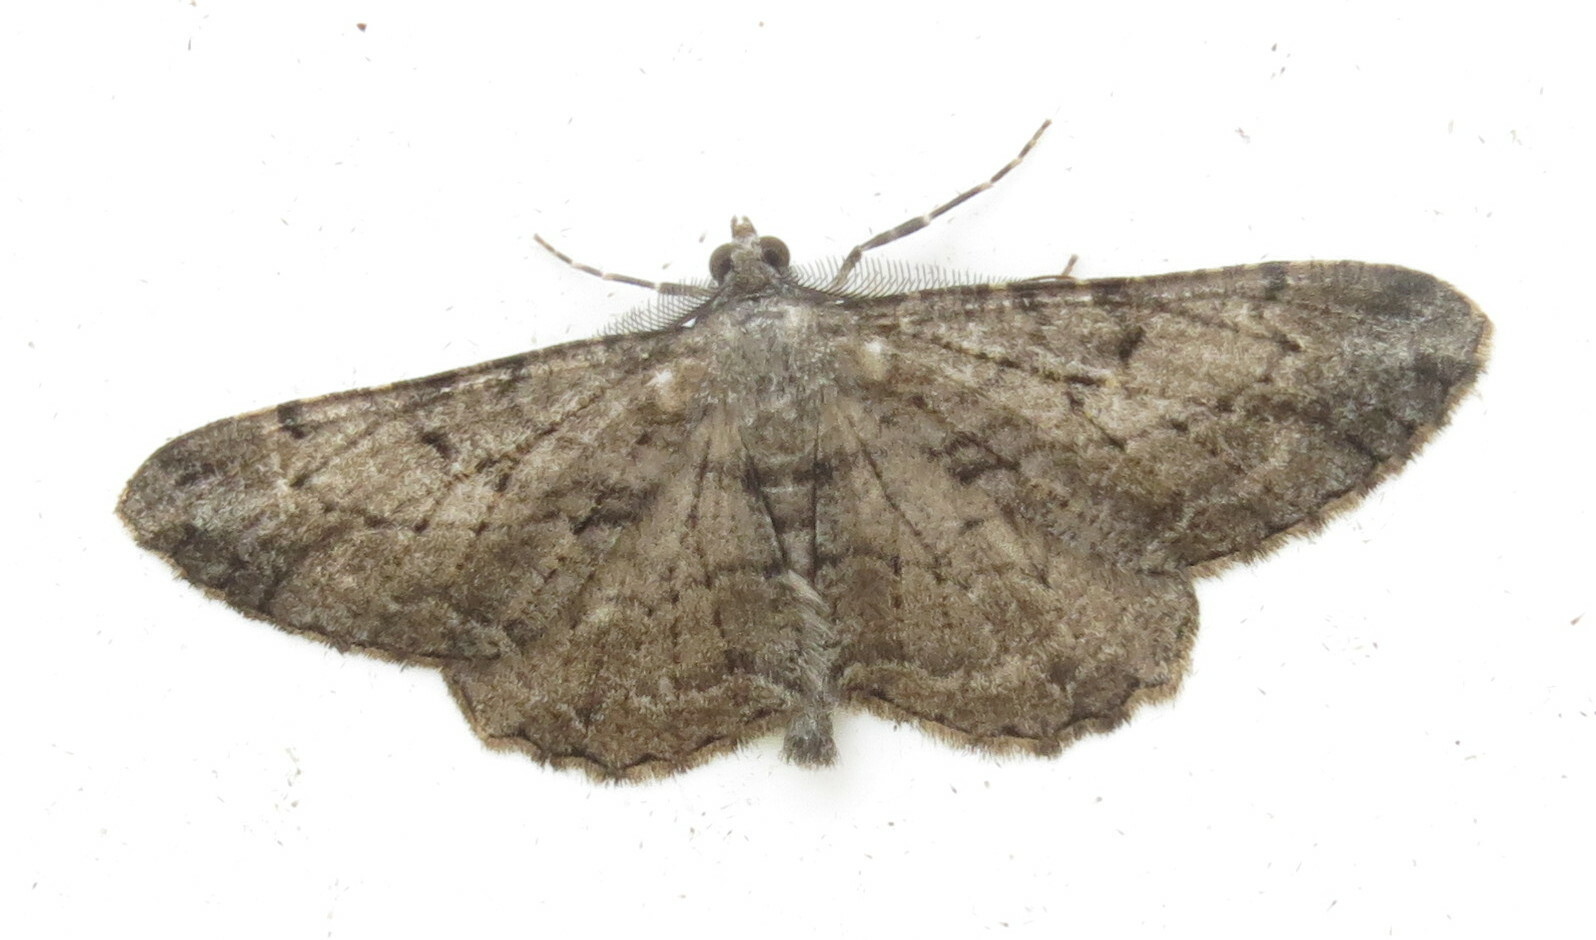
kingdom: Animalia
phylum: Arthropoda
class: Insecta
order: Lepidoptera
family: Geometridae
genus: Peribatodes
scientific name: Peribatodes rhomboidaria
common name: Willow beauty
